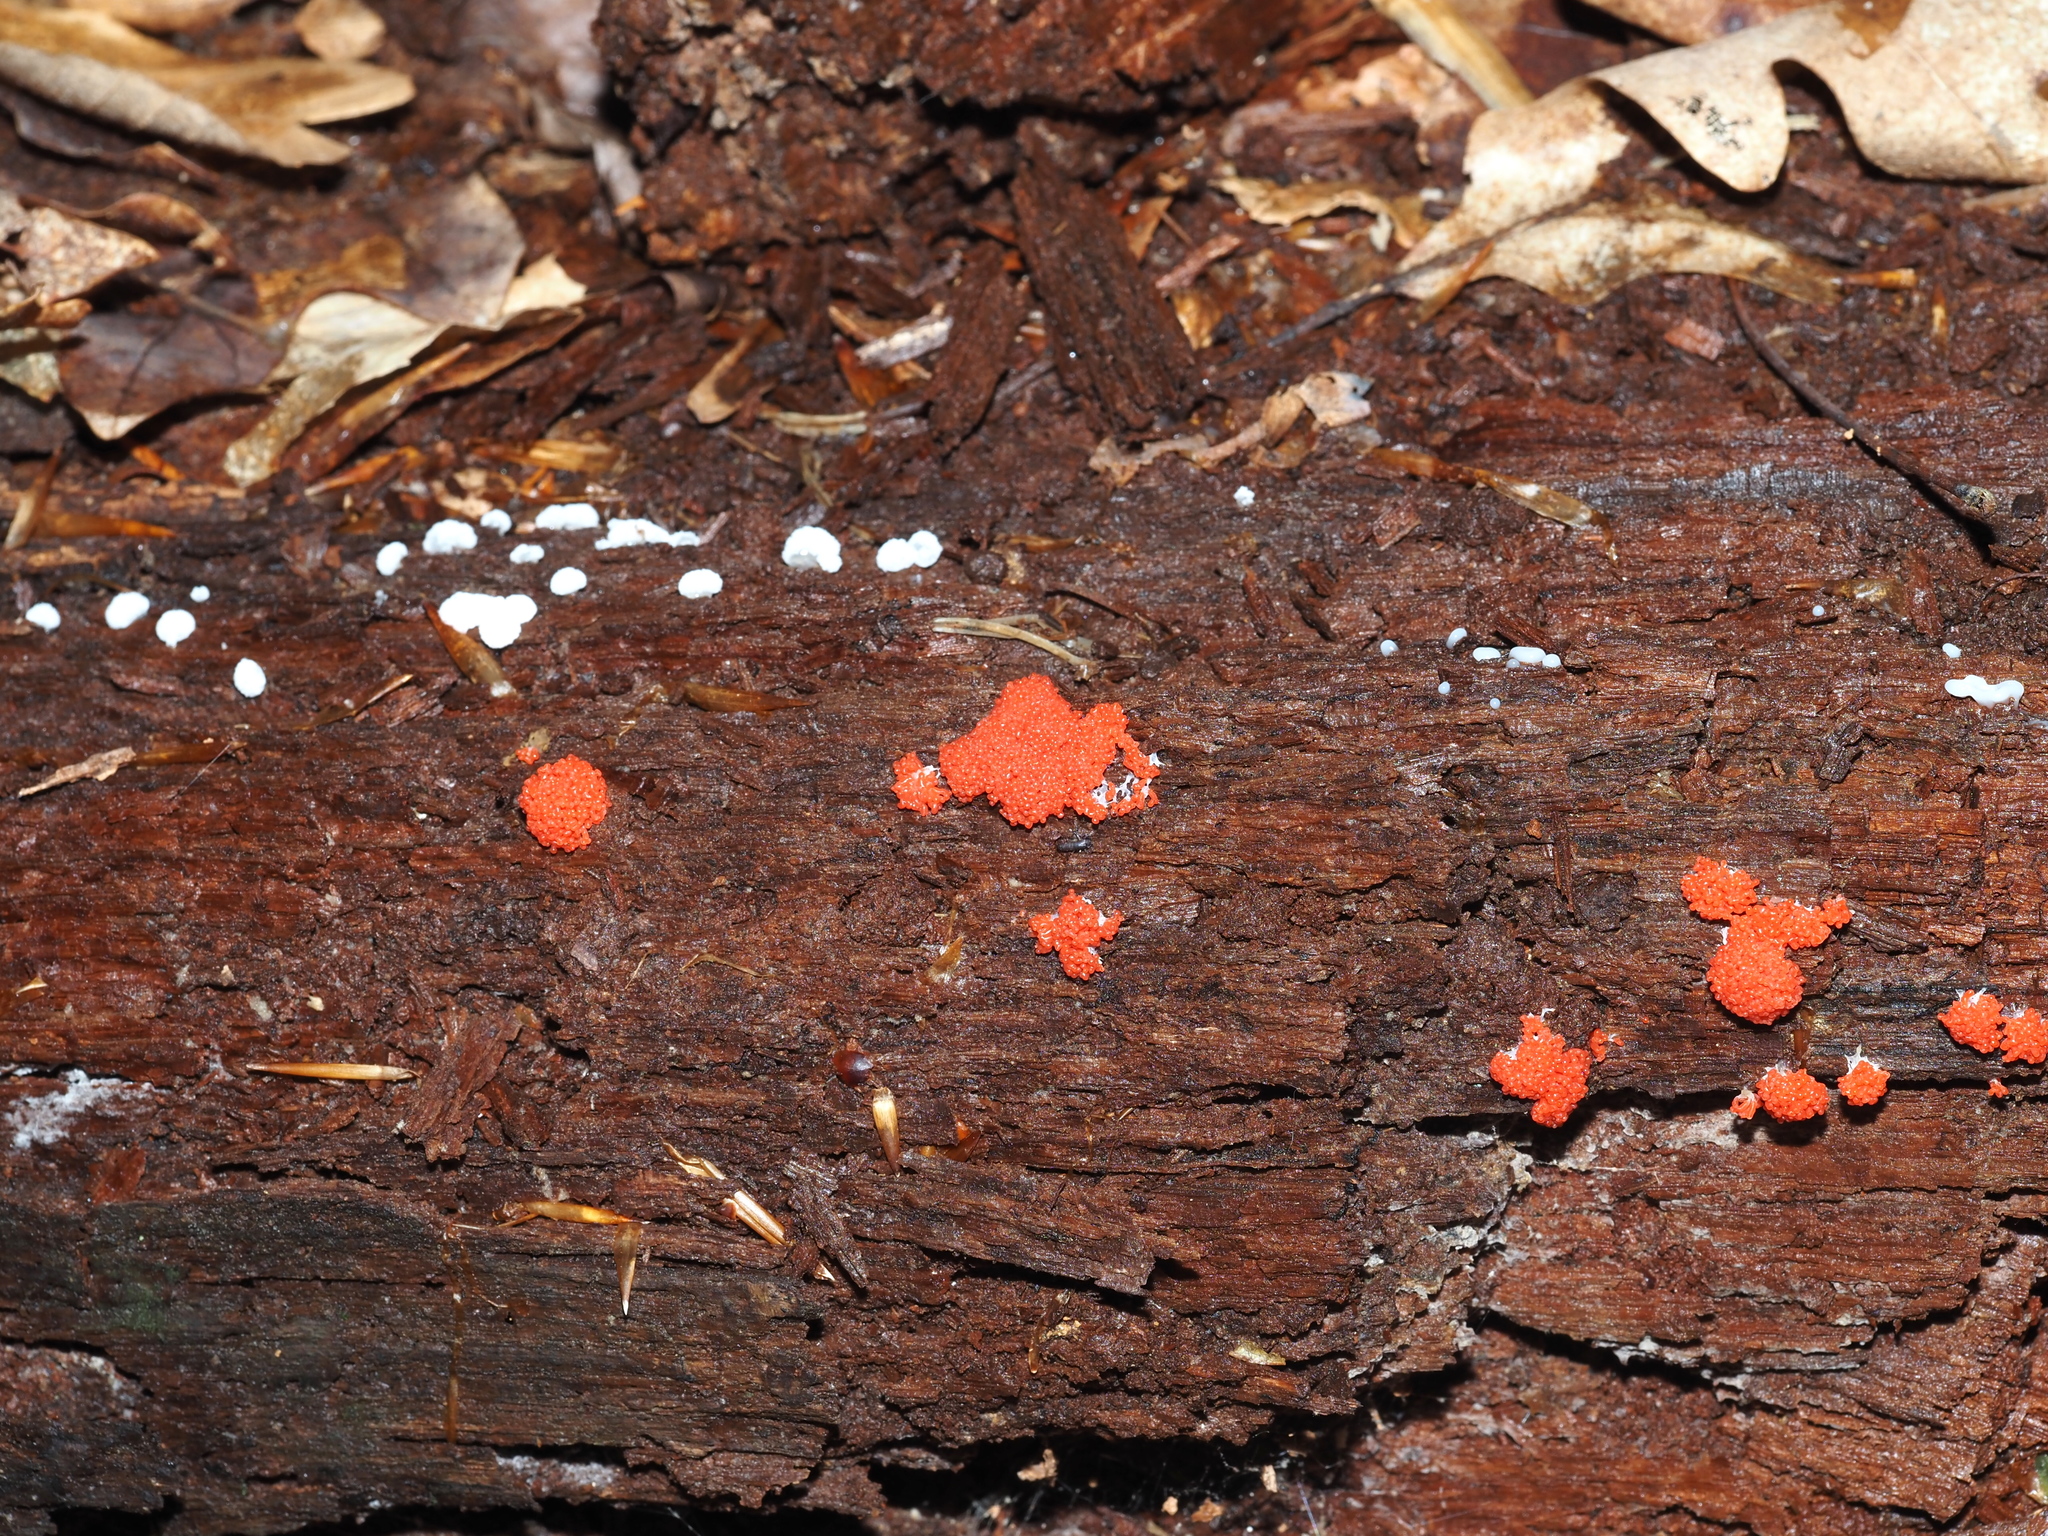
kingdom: Protozoa
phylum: Mycetozoa
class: Myxomycetes
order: Cribrariales
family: Tubiferaceae
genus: Tubifera
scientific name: Tubifera ferruginosa
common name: Red raspberry slime mold
